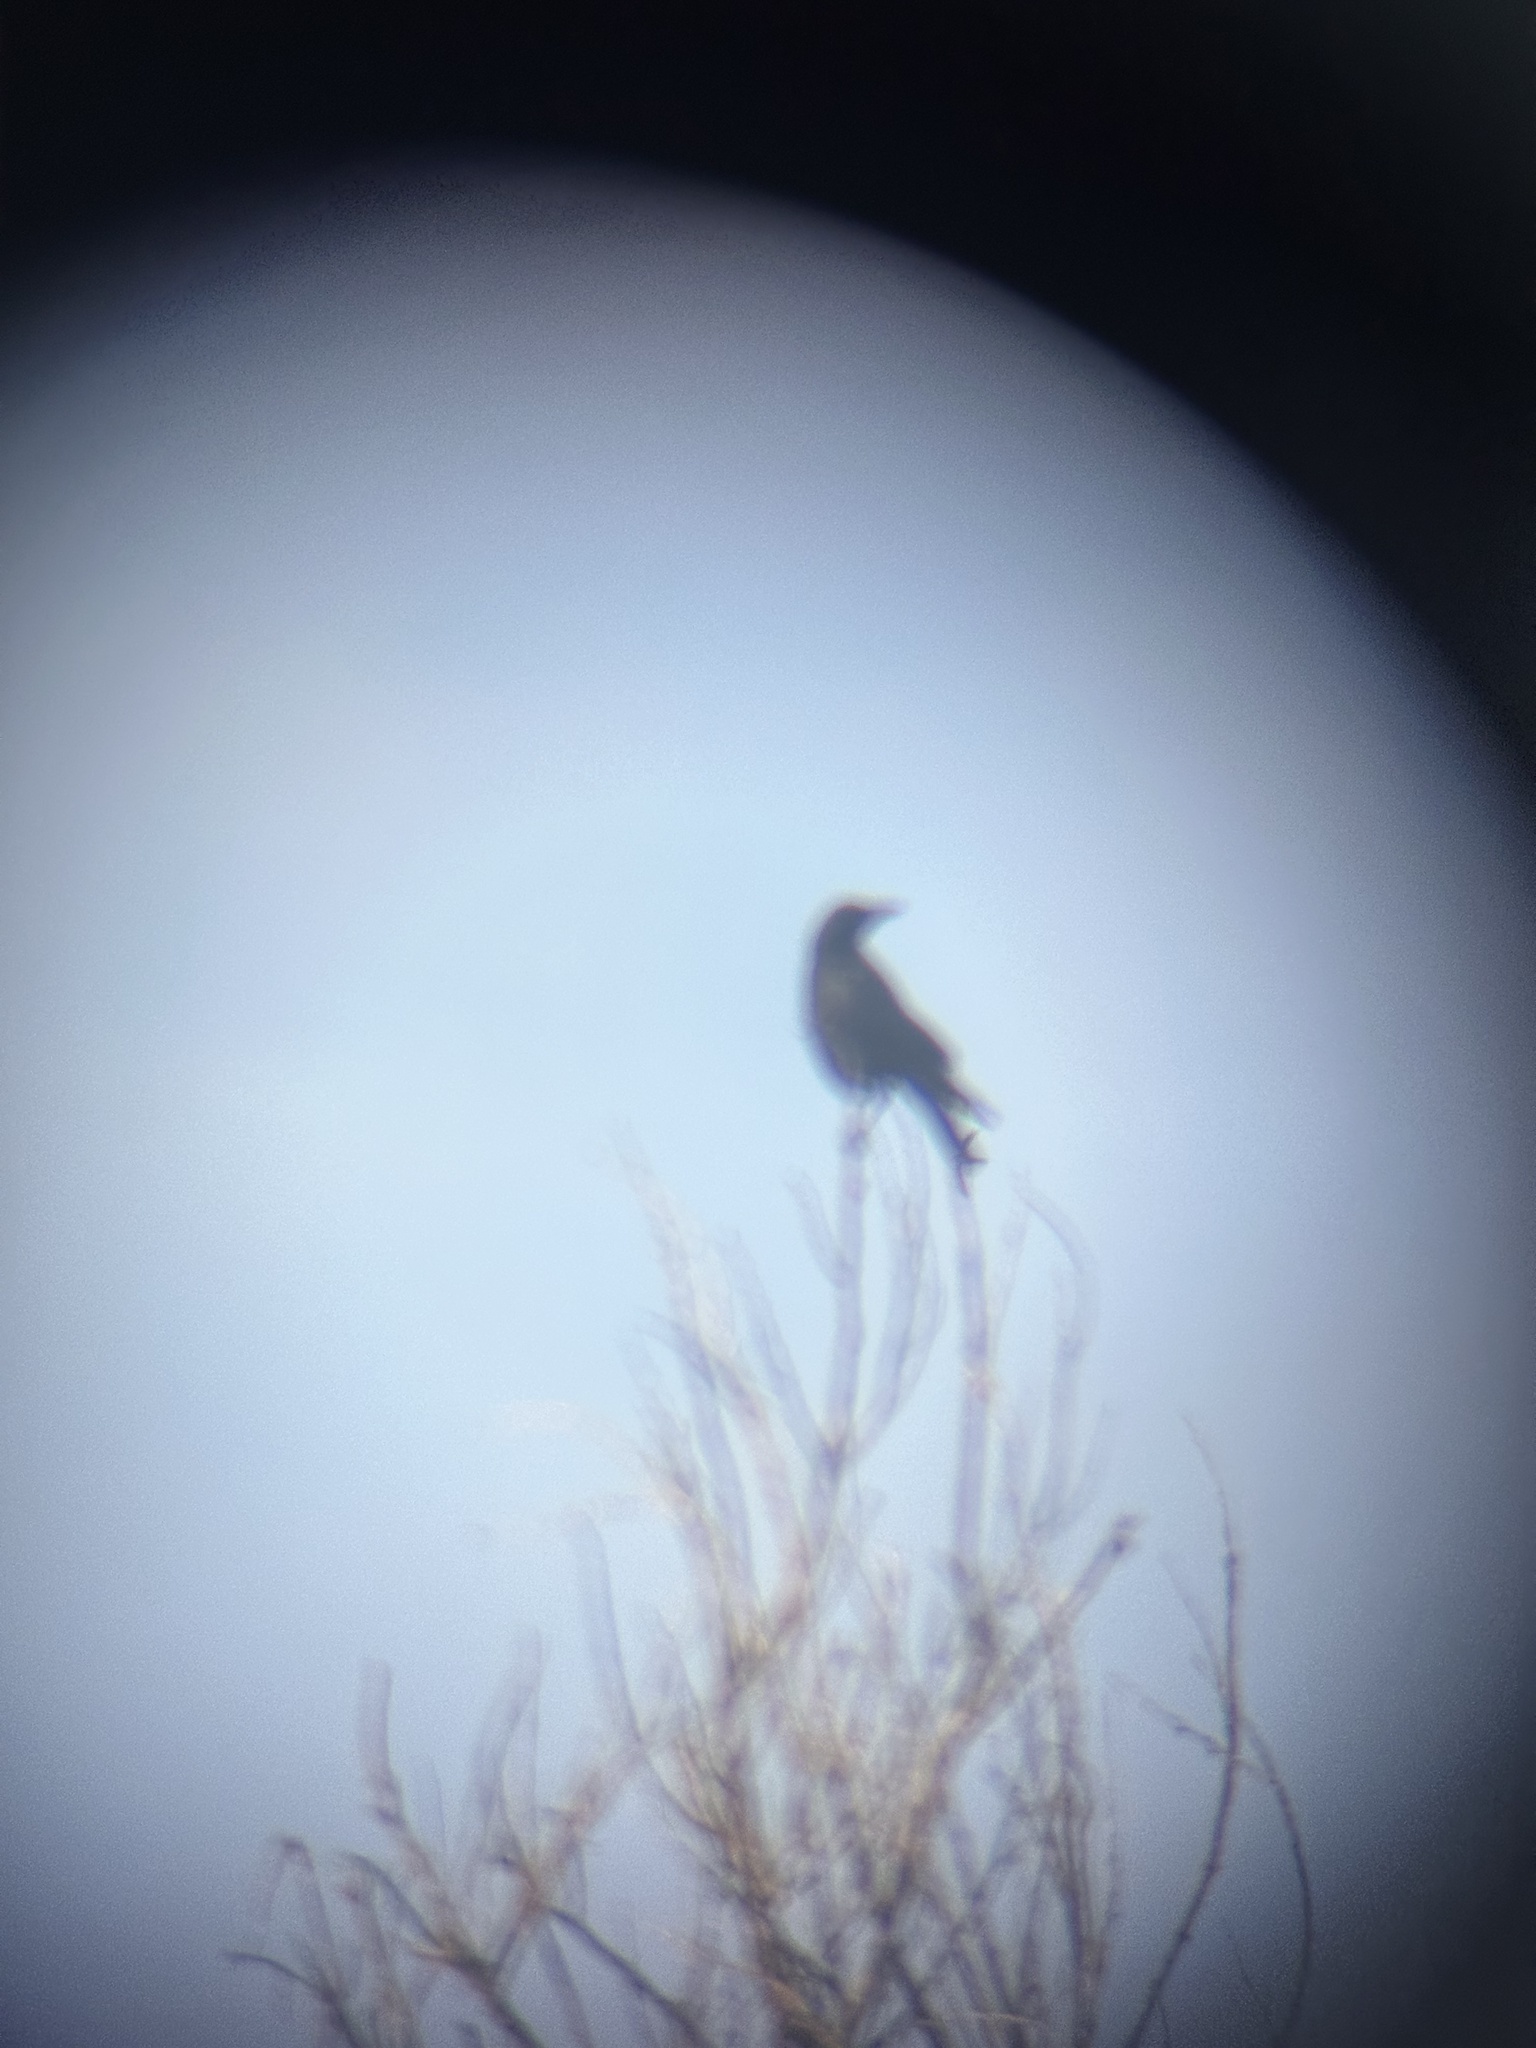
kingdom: Animalia
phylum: Chordata
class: Aves
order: Passeriformes
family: Corvidae
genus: Corvus
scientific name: Corvus brachyrhynchos
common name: American crow
